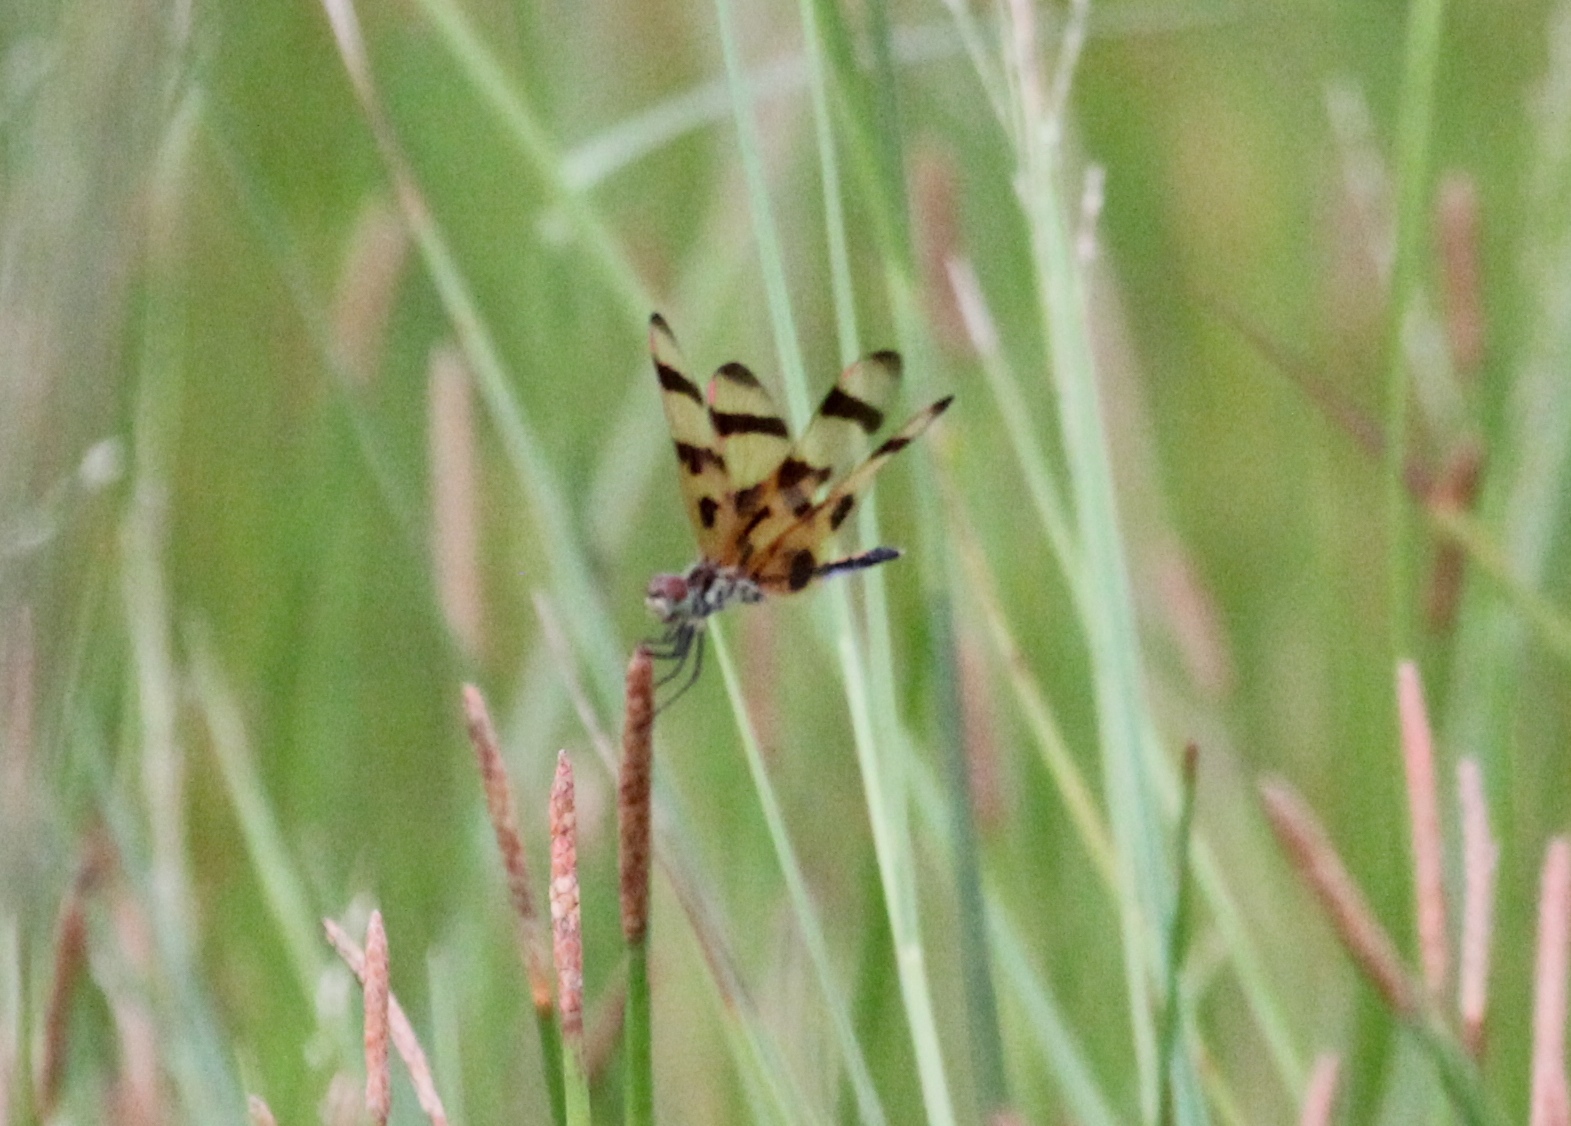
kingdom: Animalia
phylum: Arthropoda
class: Insecta
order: Odonata
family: Libellulidae
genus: Celithemis
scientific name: Celithemis eponina
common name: Halloween pennant
